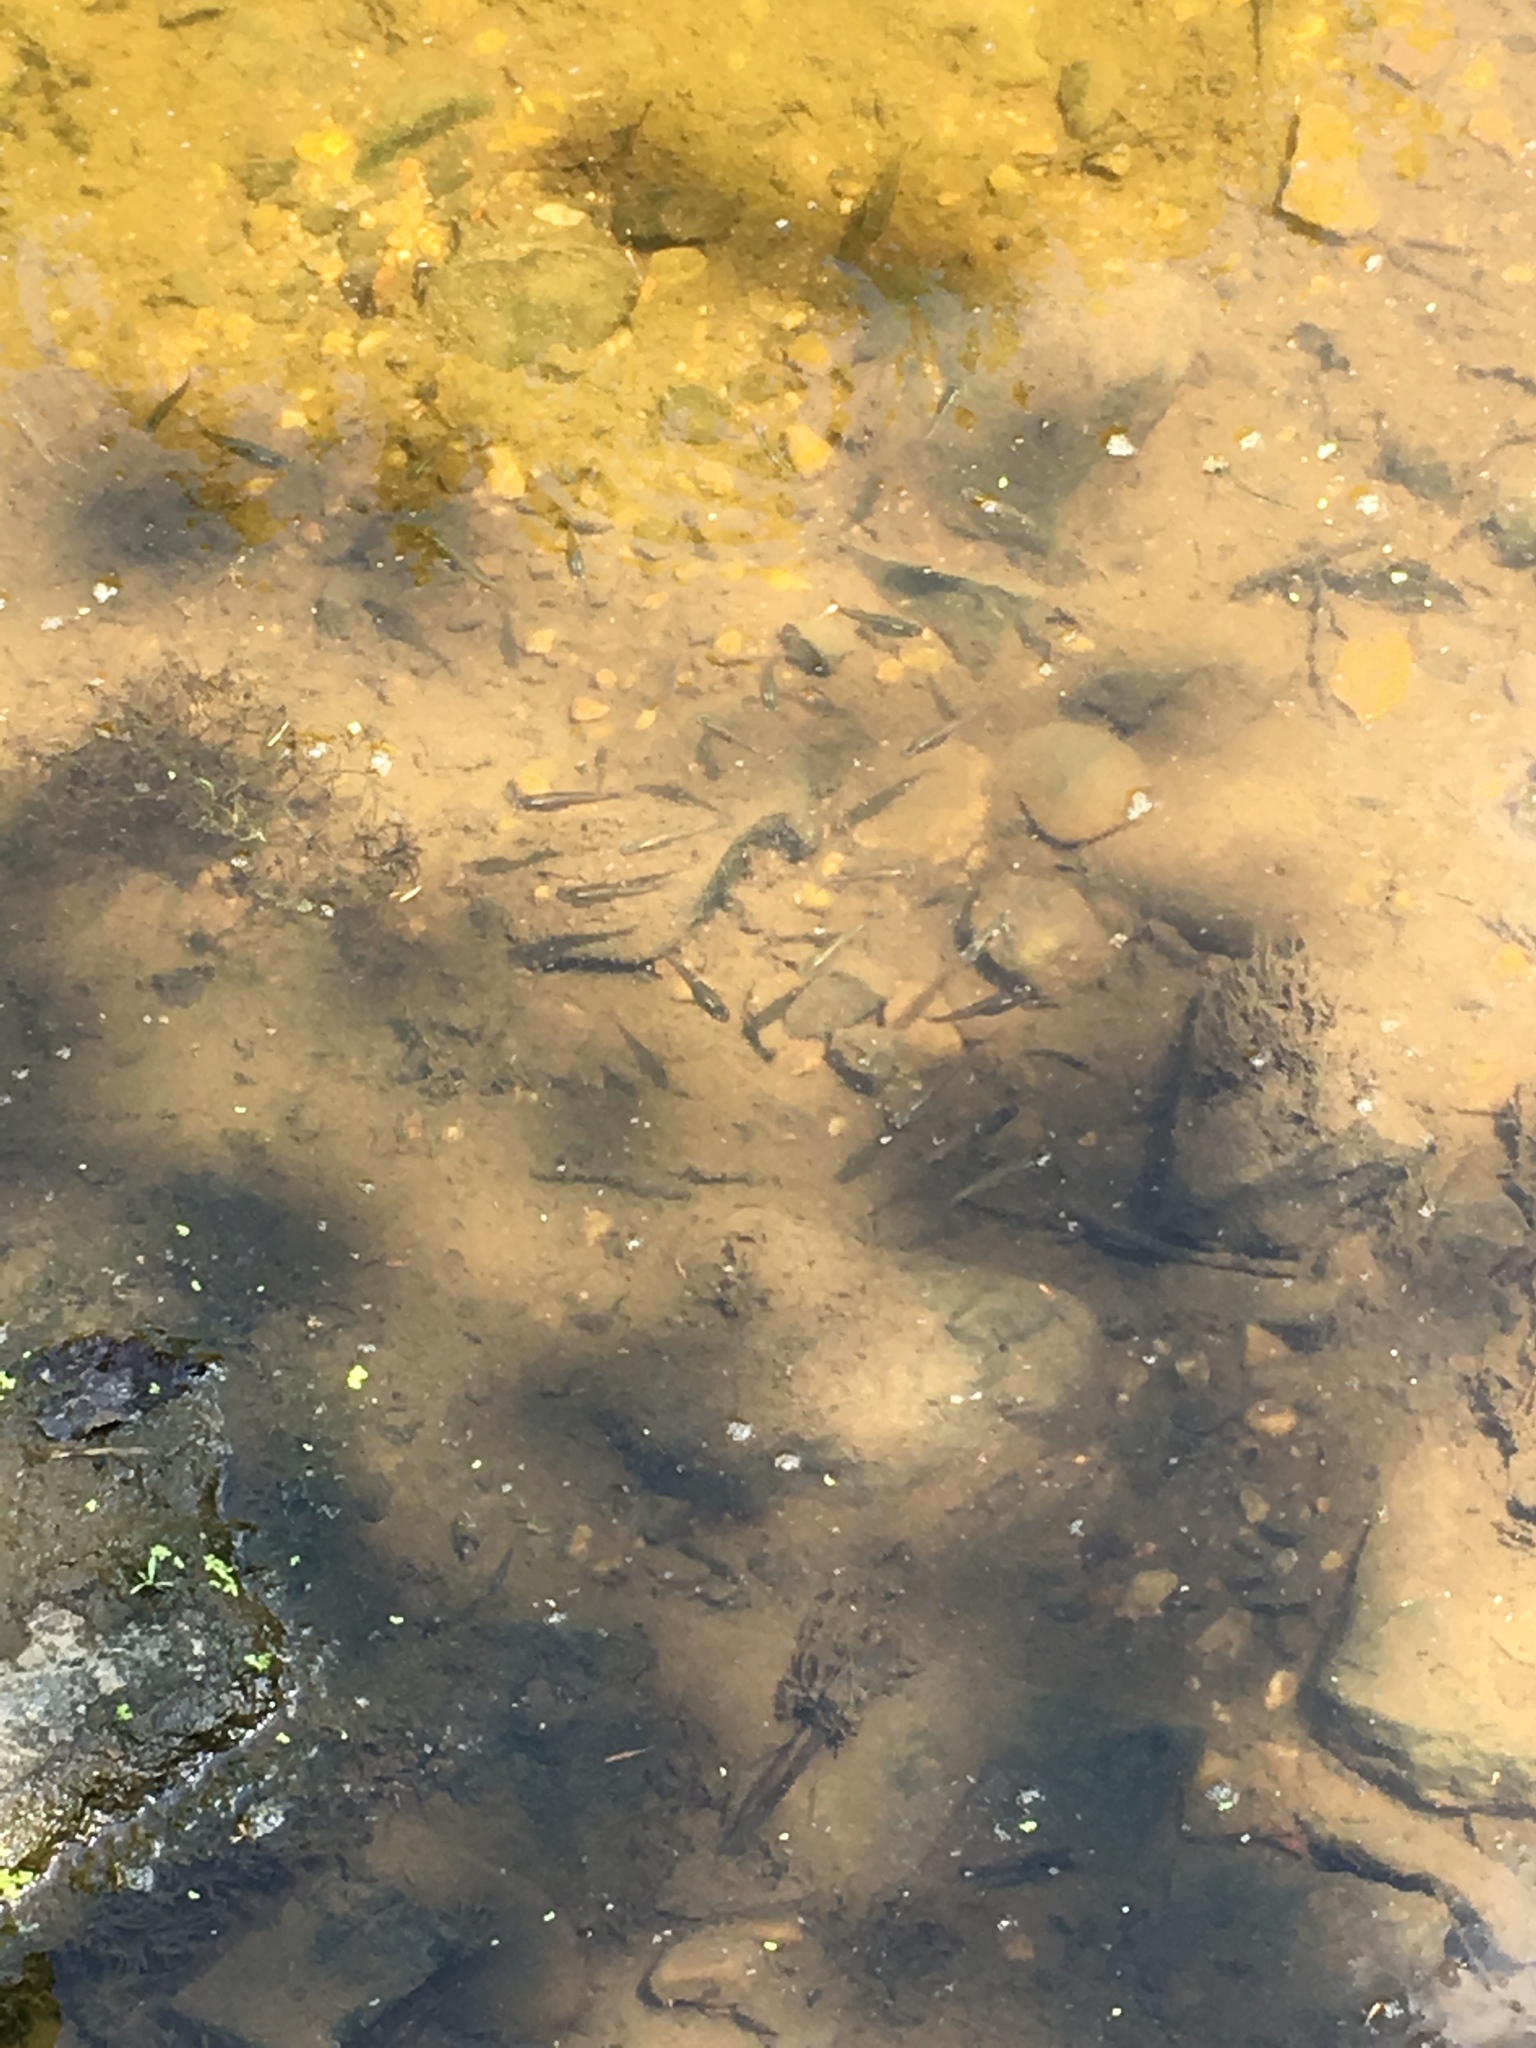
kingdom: Animalia
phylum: Chordata
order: Cyprinodontiformes
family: Poeciliidae
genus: Gambusia
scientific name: Gambusia holbrooki
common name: Eastern mosquitofish
